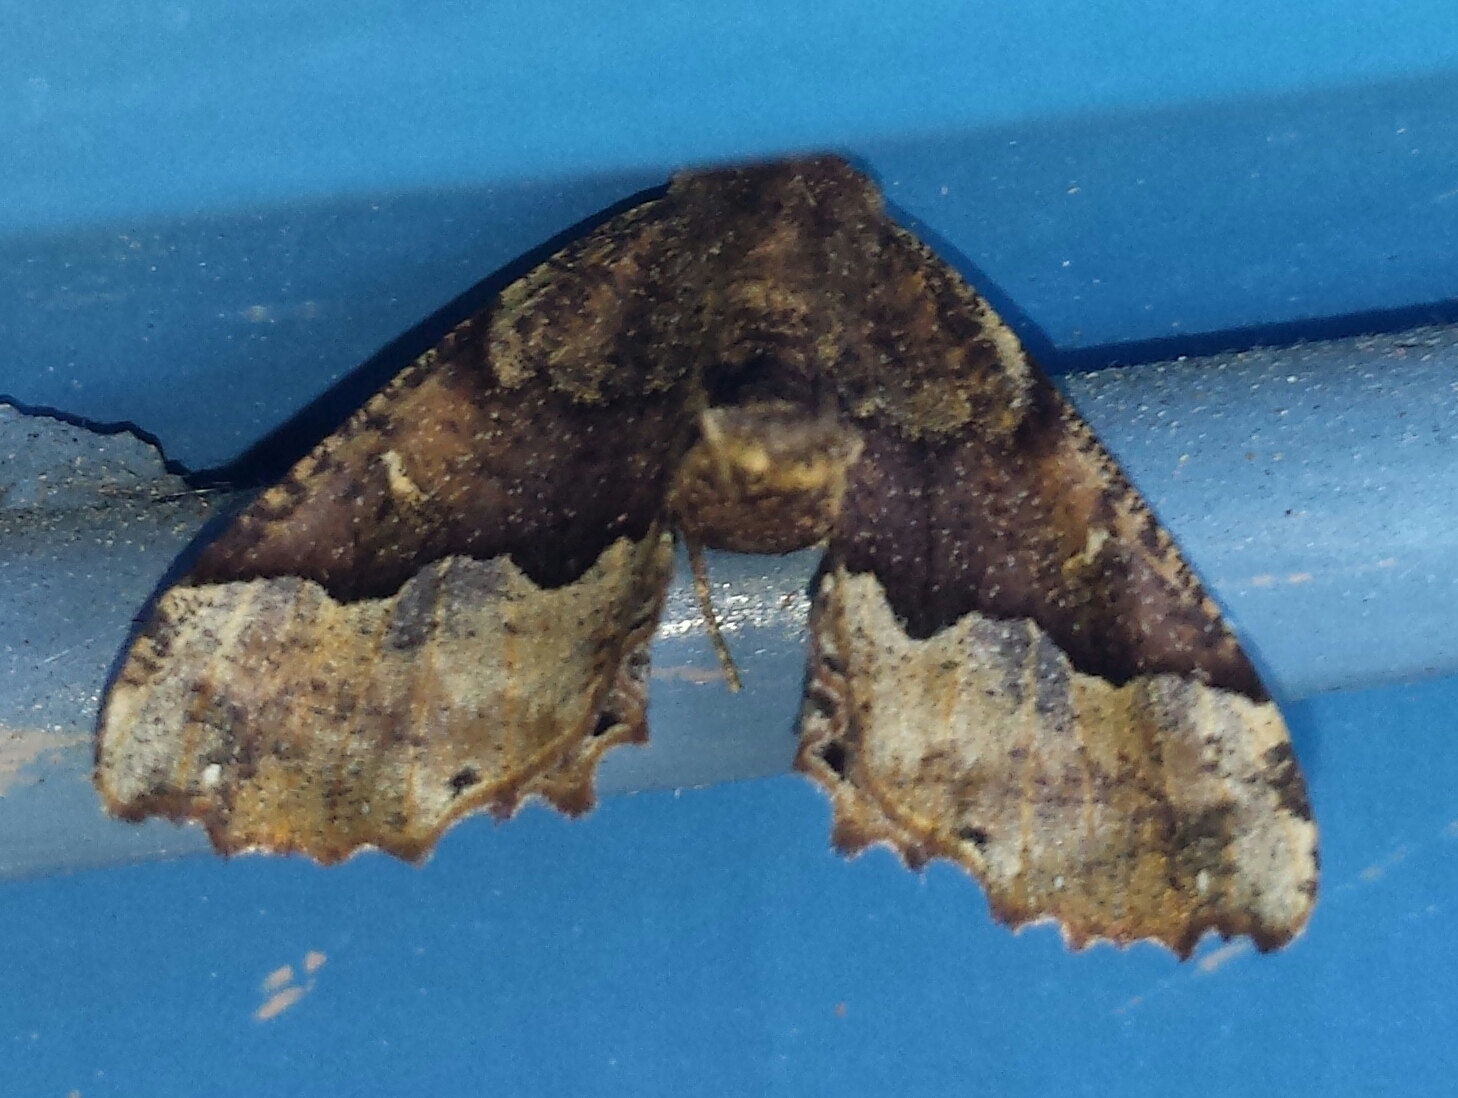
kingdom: Animalia
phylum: Arthropoda
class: Insecta
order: Lepidoptera
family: Geometridae
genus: Pero
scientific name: Pero morrisonaria
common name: Morrison's pero
